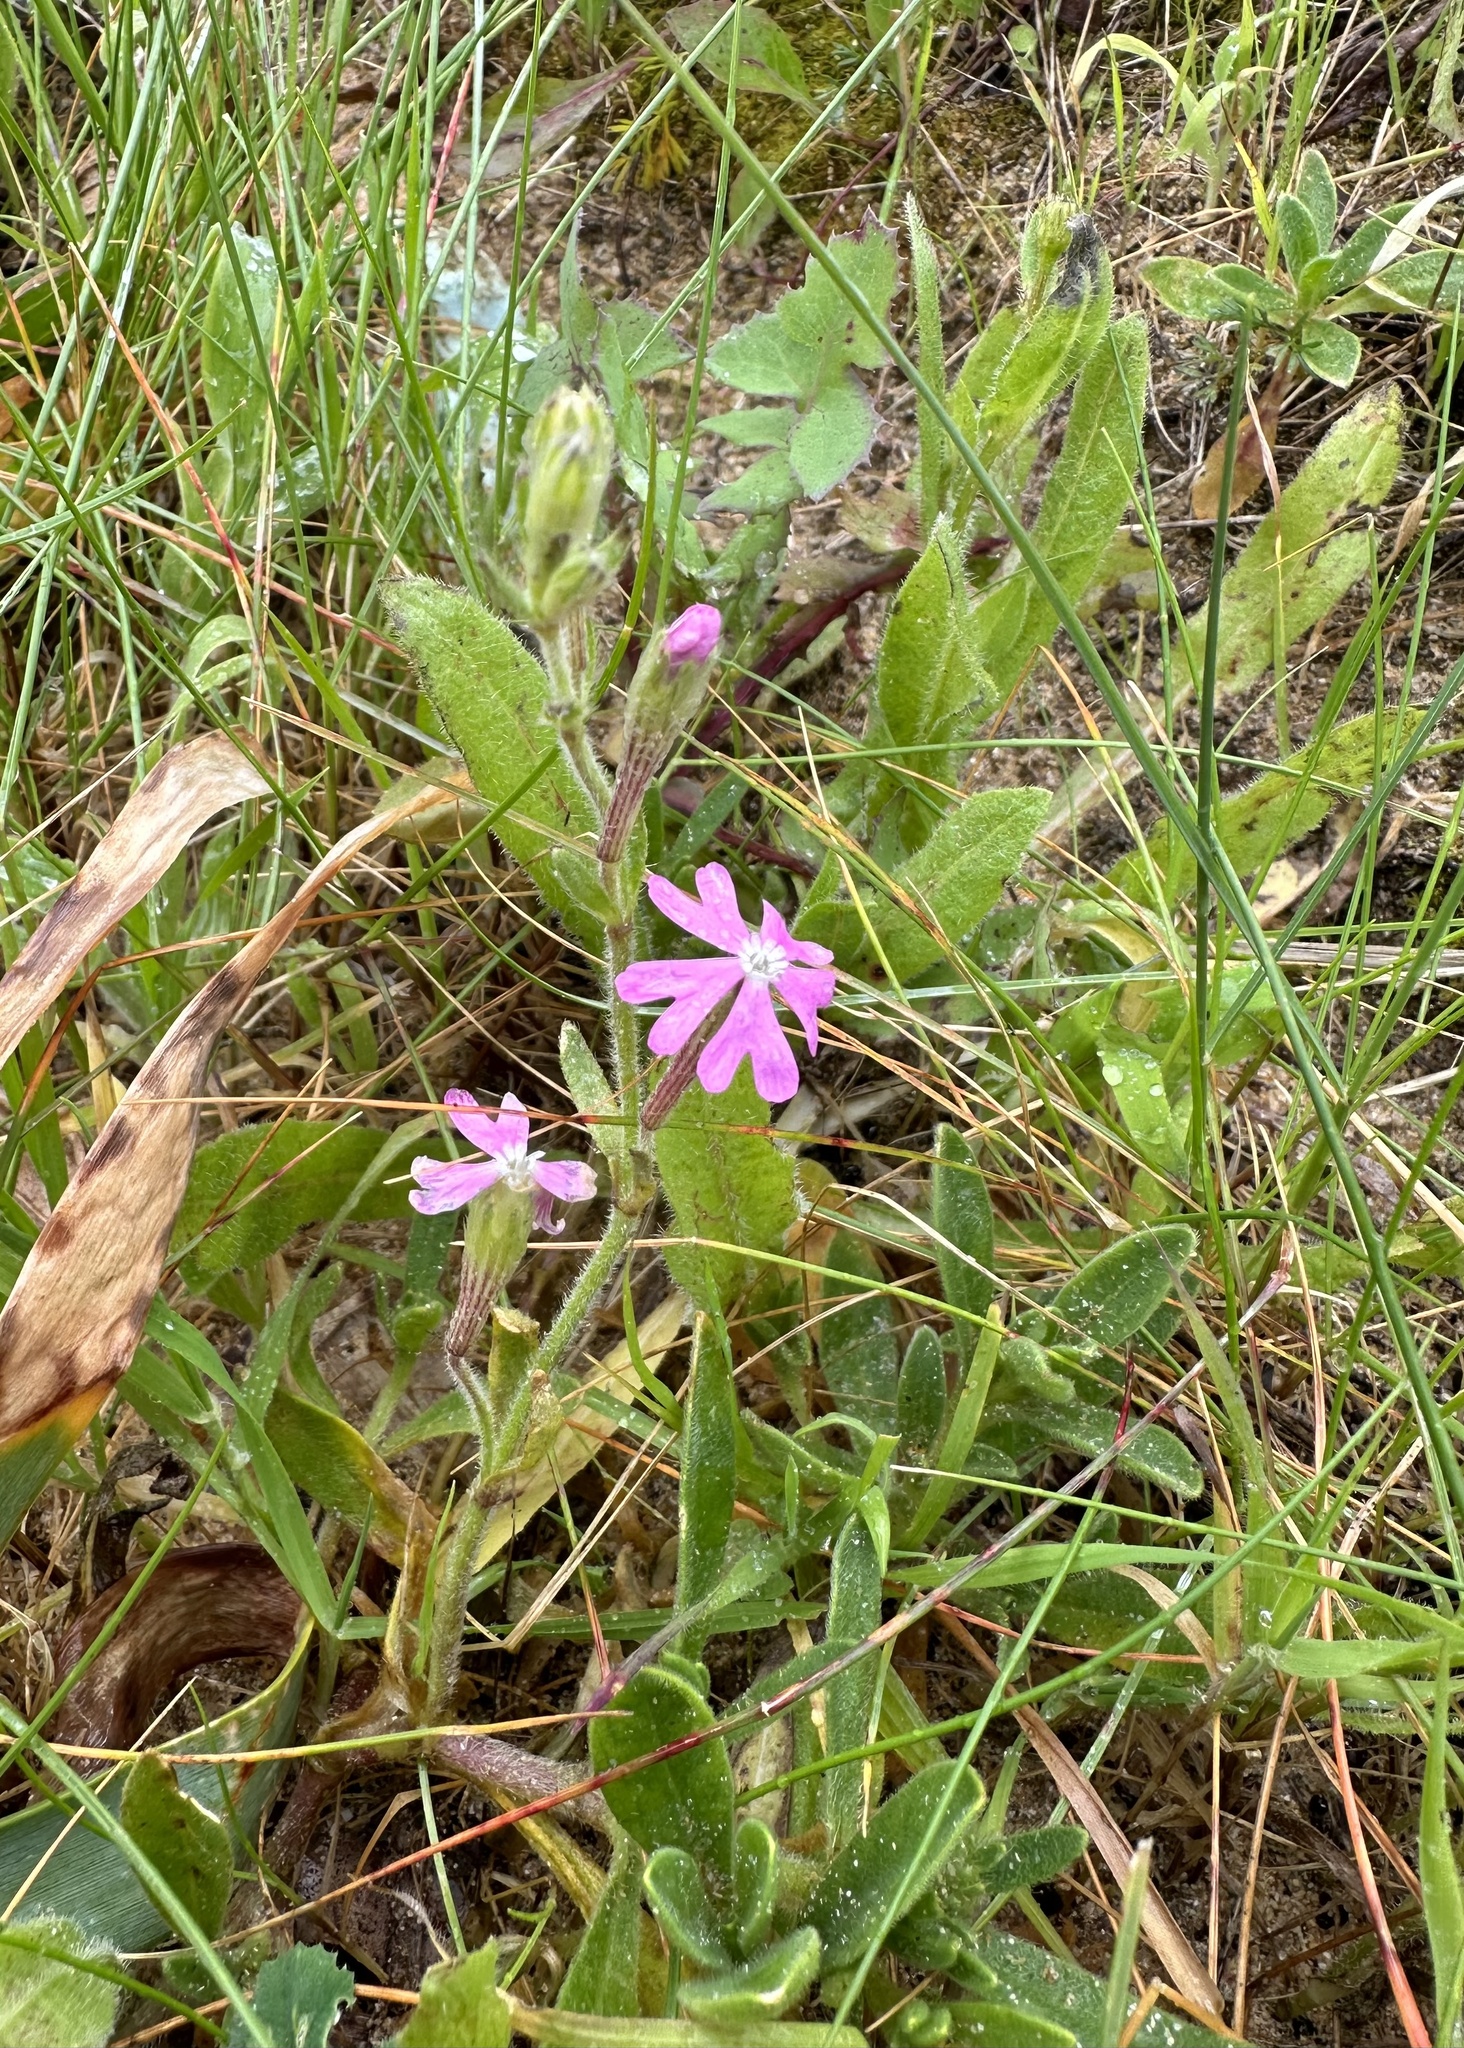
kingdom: Plantae
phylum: Tracheophyta
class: Magnoliopsida
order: Caryophyllales
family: Caryophyllaceae
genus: Silene
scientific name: Silene scabriflora
